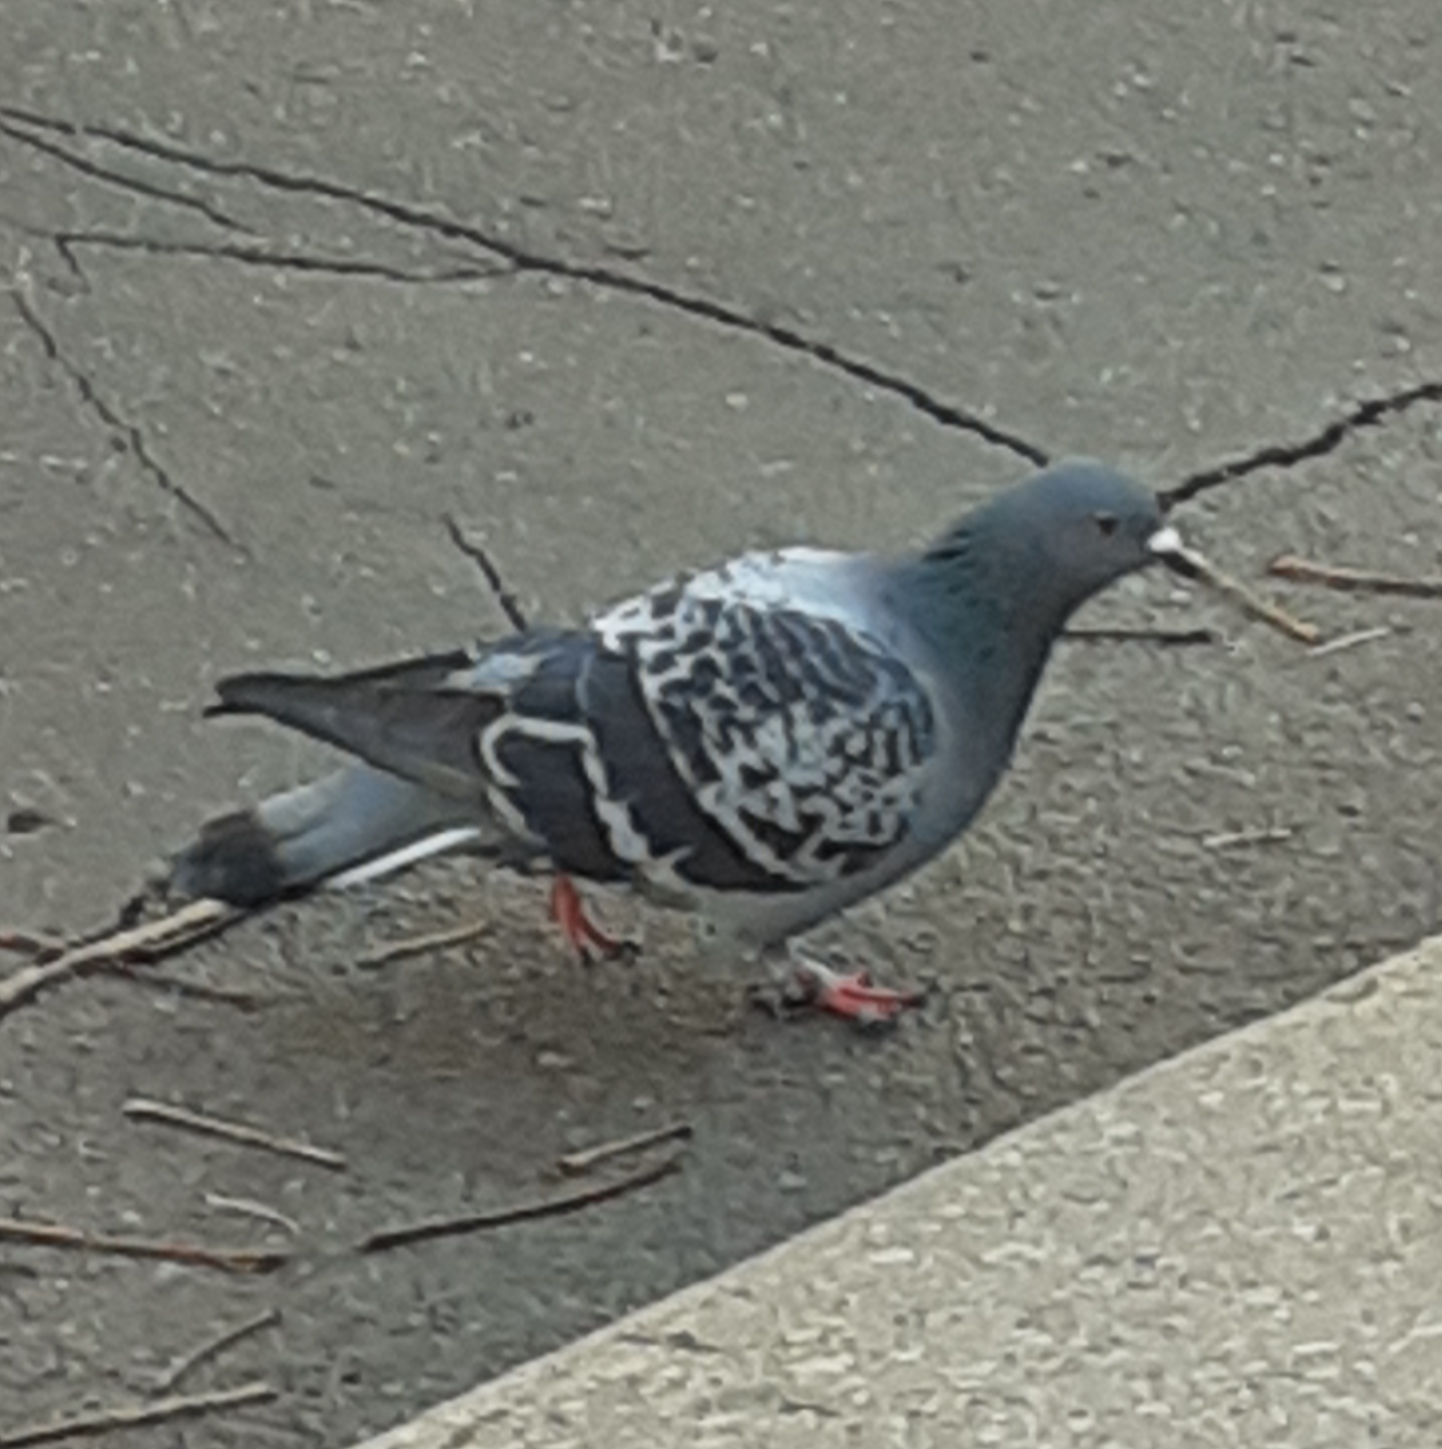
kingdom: Animalia
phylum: Chordata
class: Aves
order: Columbiformes
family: Columbidae
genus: Columba
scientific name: Columba livia
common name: Rock pigeon
